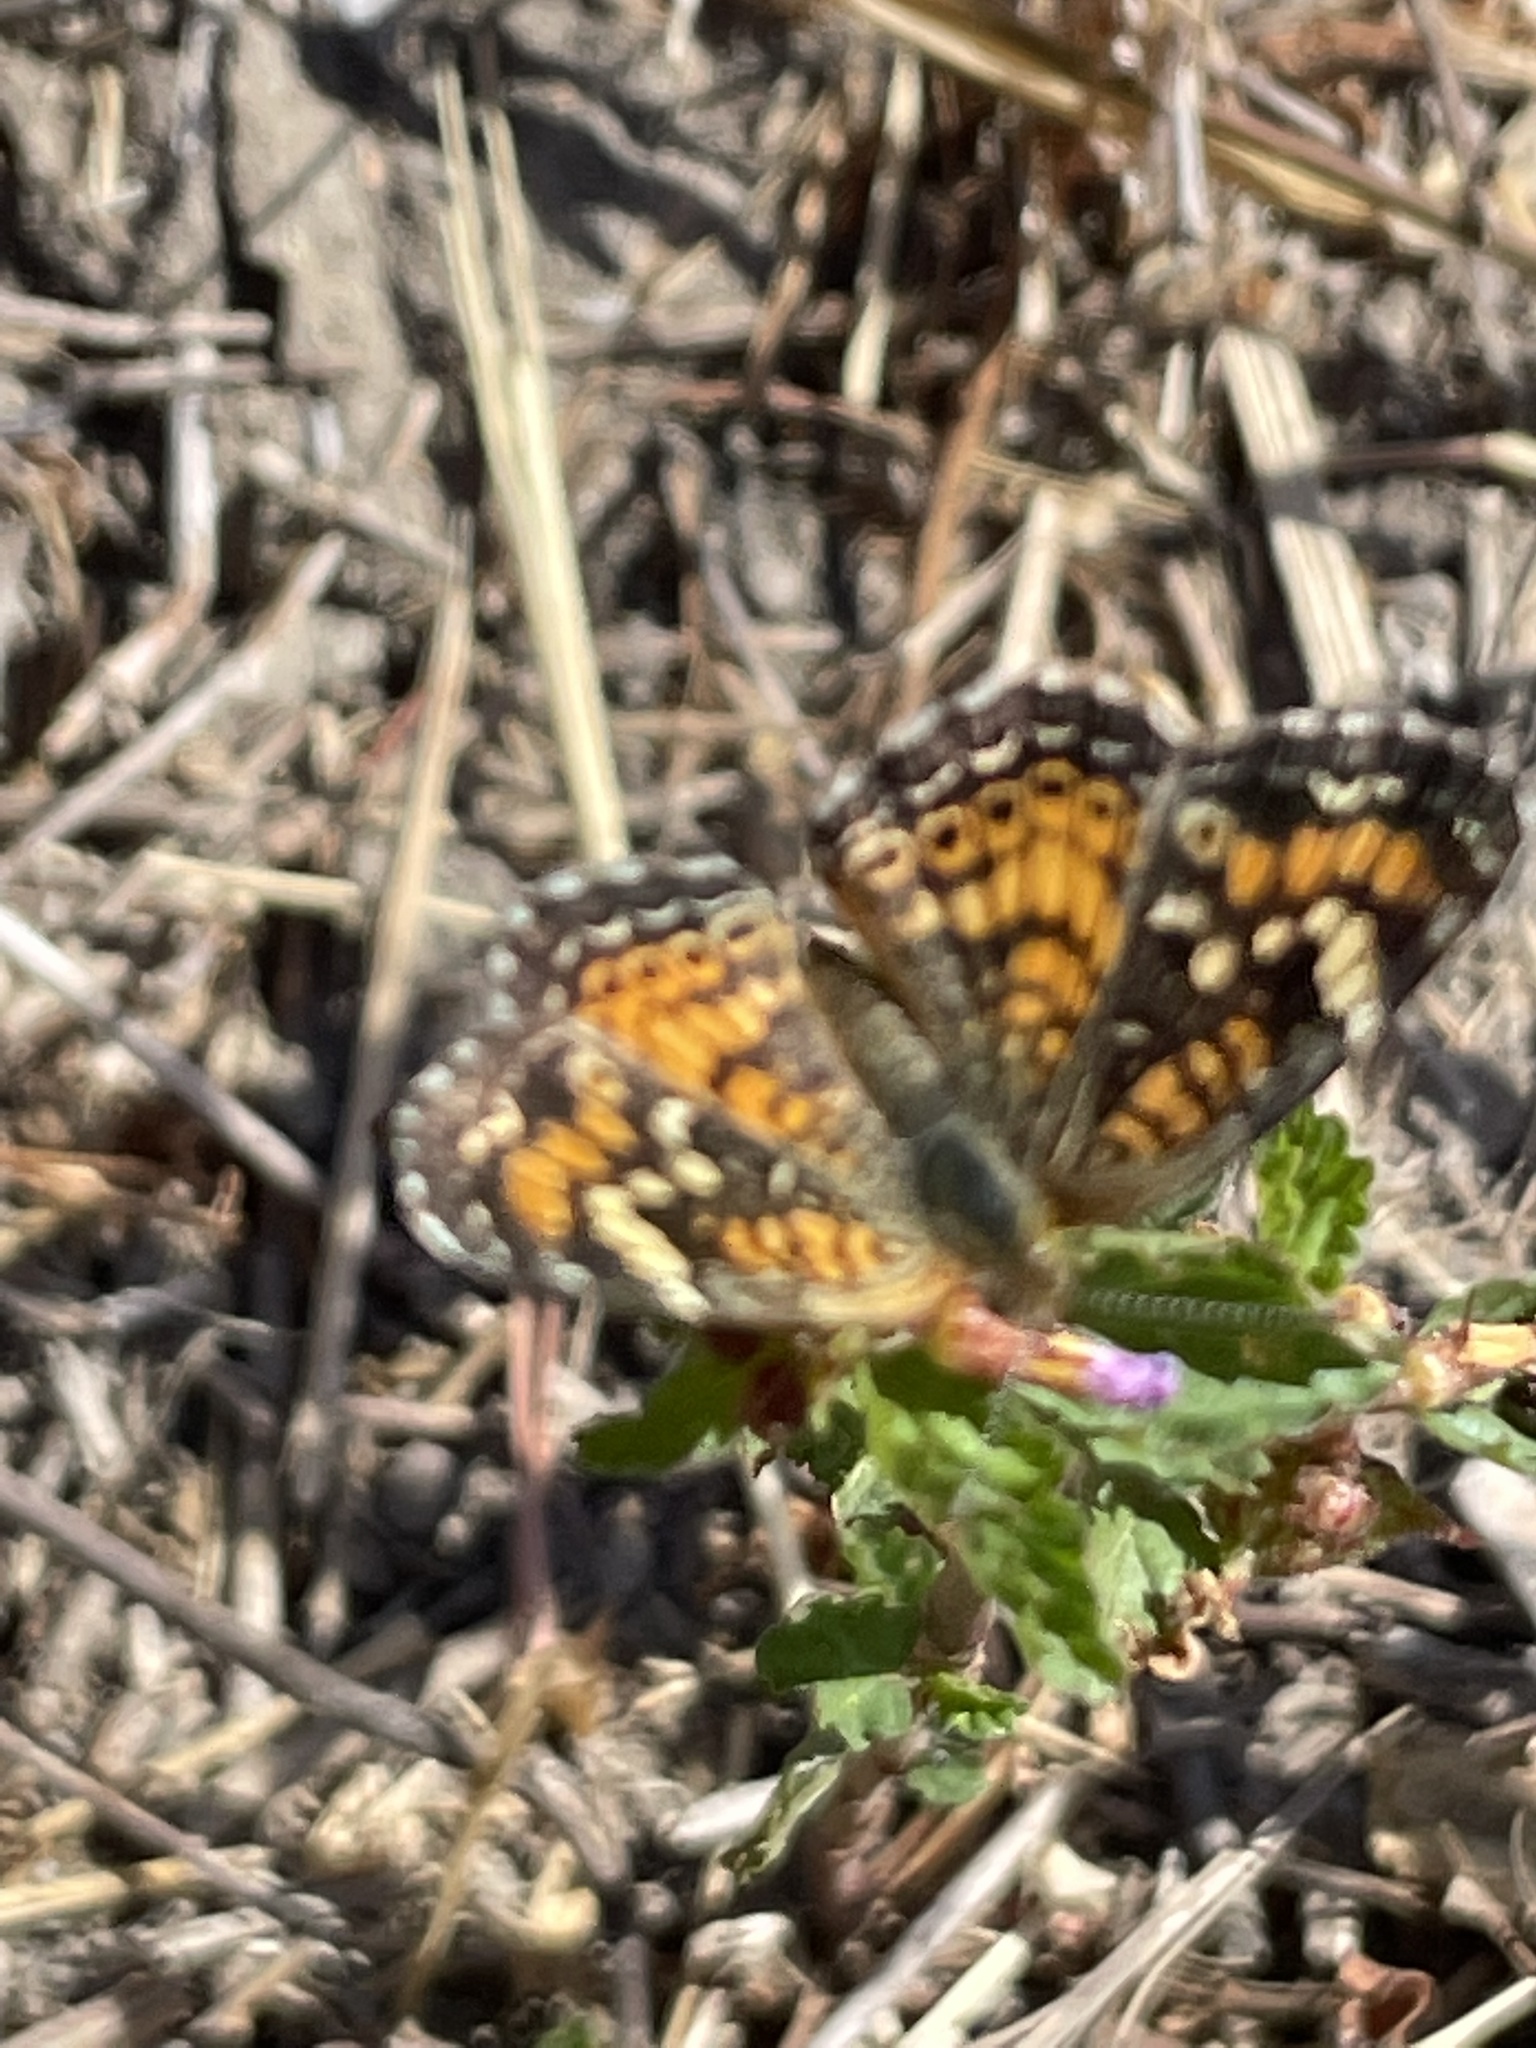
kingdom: Animalia
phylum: Arthropoda
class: Insecta
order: Lepidoptera
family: Nymphalidae
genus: Phyciodes
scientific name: Phyciodes phaon
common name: Phaon crescent
